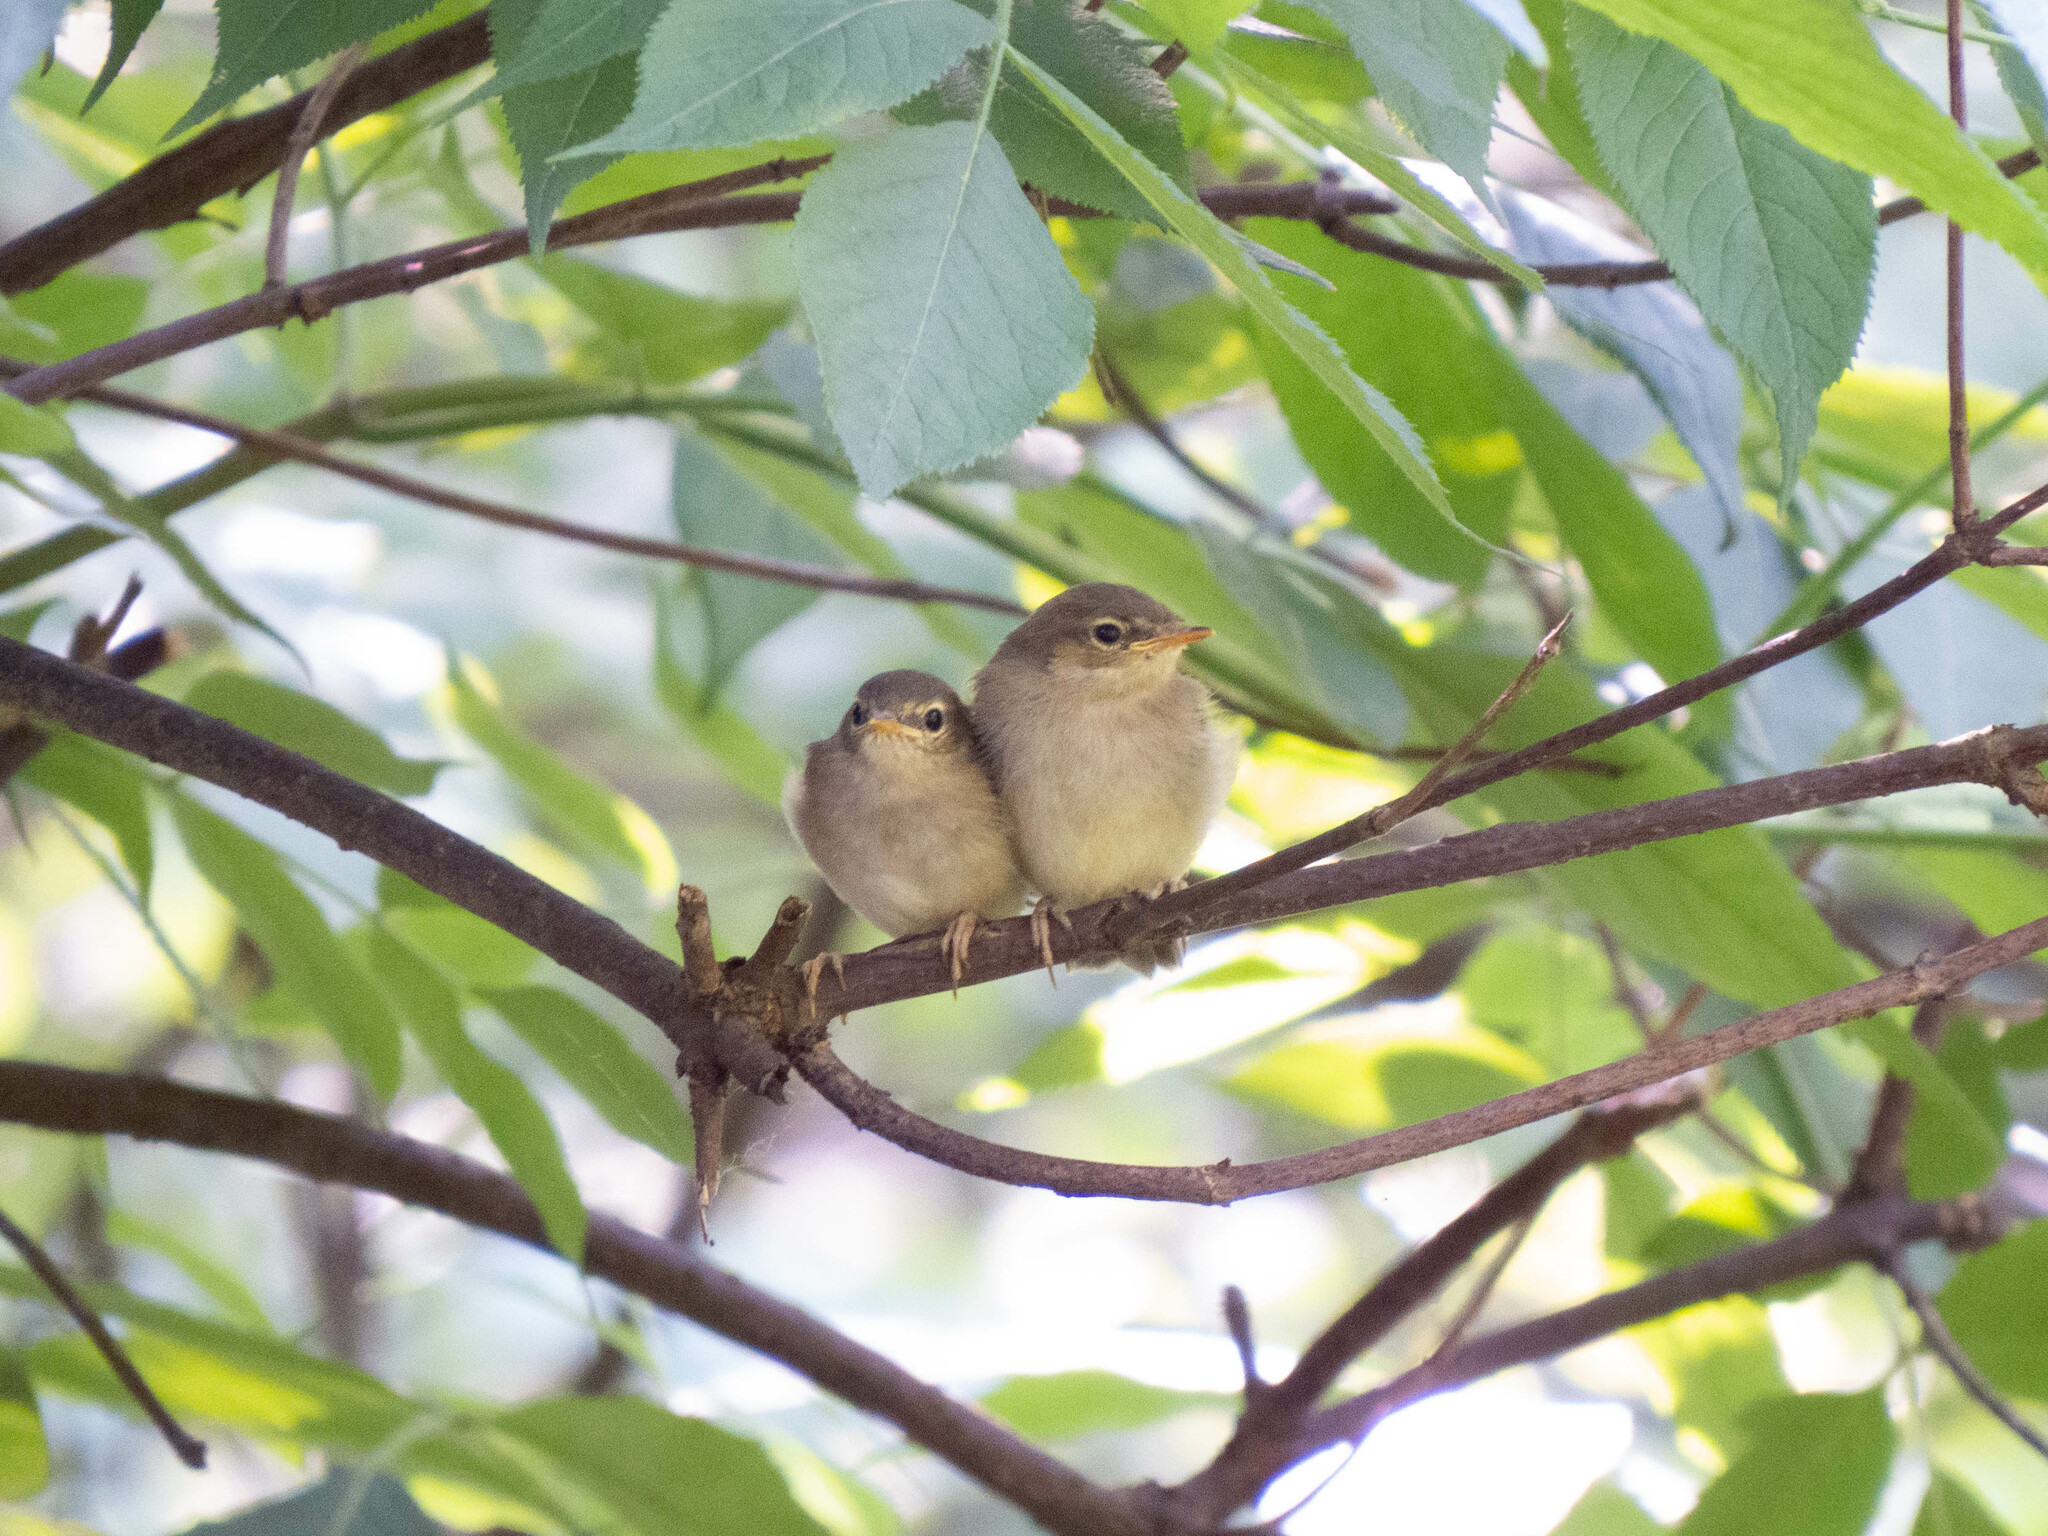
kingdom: Animalia
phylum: Chordata
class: Aves
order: Passeriformes
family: Phylloscopidae
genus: Phylloscopus
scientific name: Phylloscopus trochilus
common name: Willow warbler
